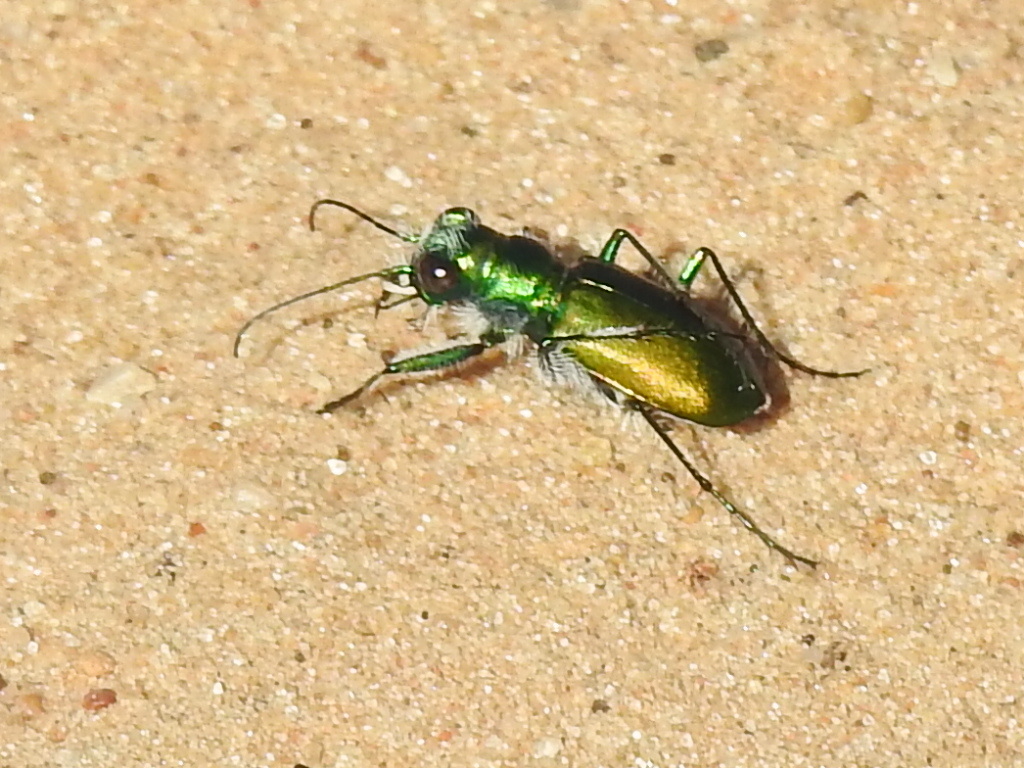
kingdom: Animalia
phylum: Arthropoda
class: Insecta
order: Coleoptera
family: Carabidae
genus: Cicindela
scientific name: Cicindela scutellaris
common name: Festive tiger beetle
